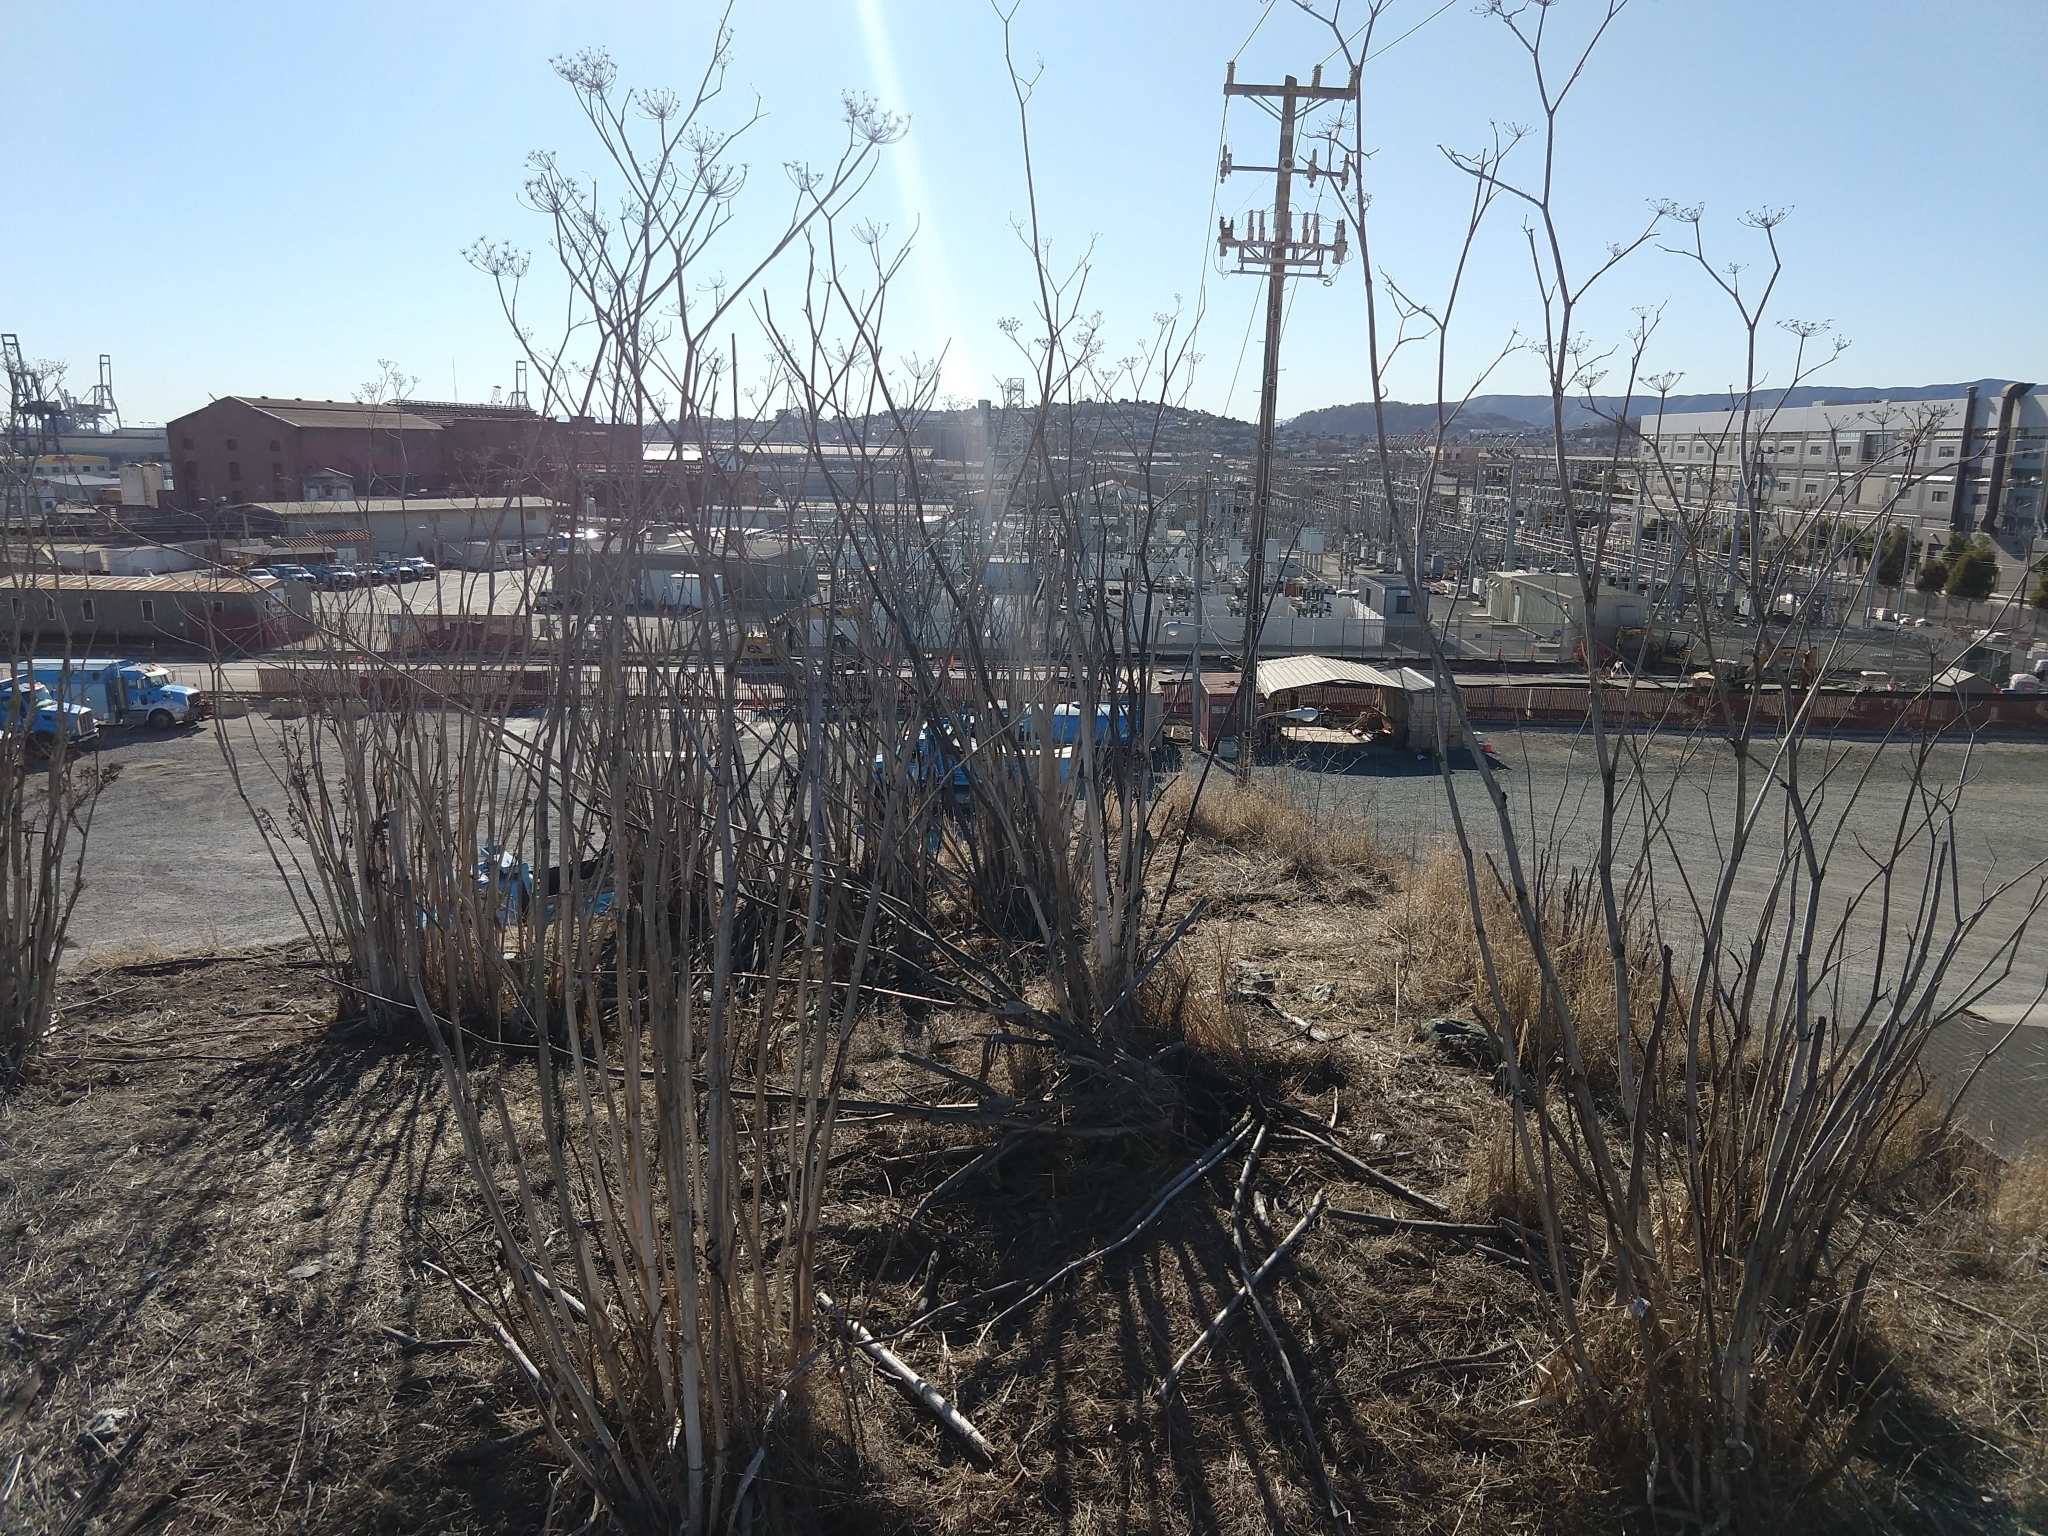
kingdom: Plantae
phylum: Tracheophyta
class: Magnoliopsida
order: Apiales
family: Apiaceae
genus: Foeniculum
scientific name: Foeniculum vulgare
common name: Fennel
